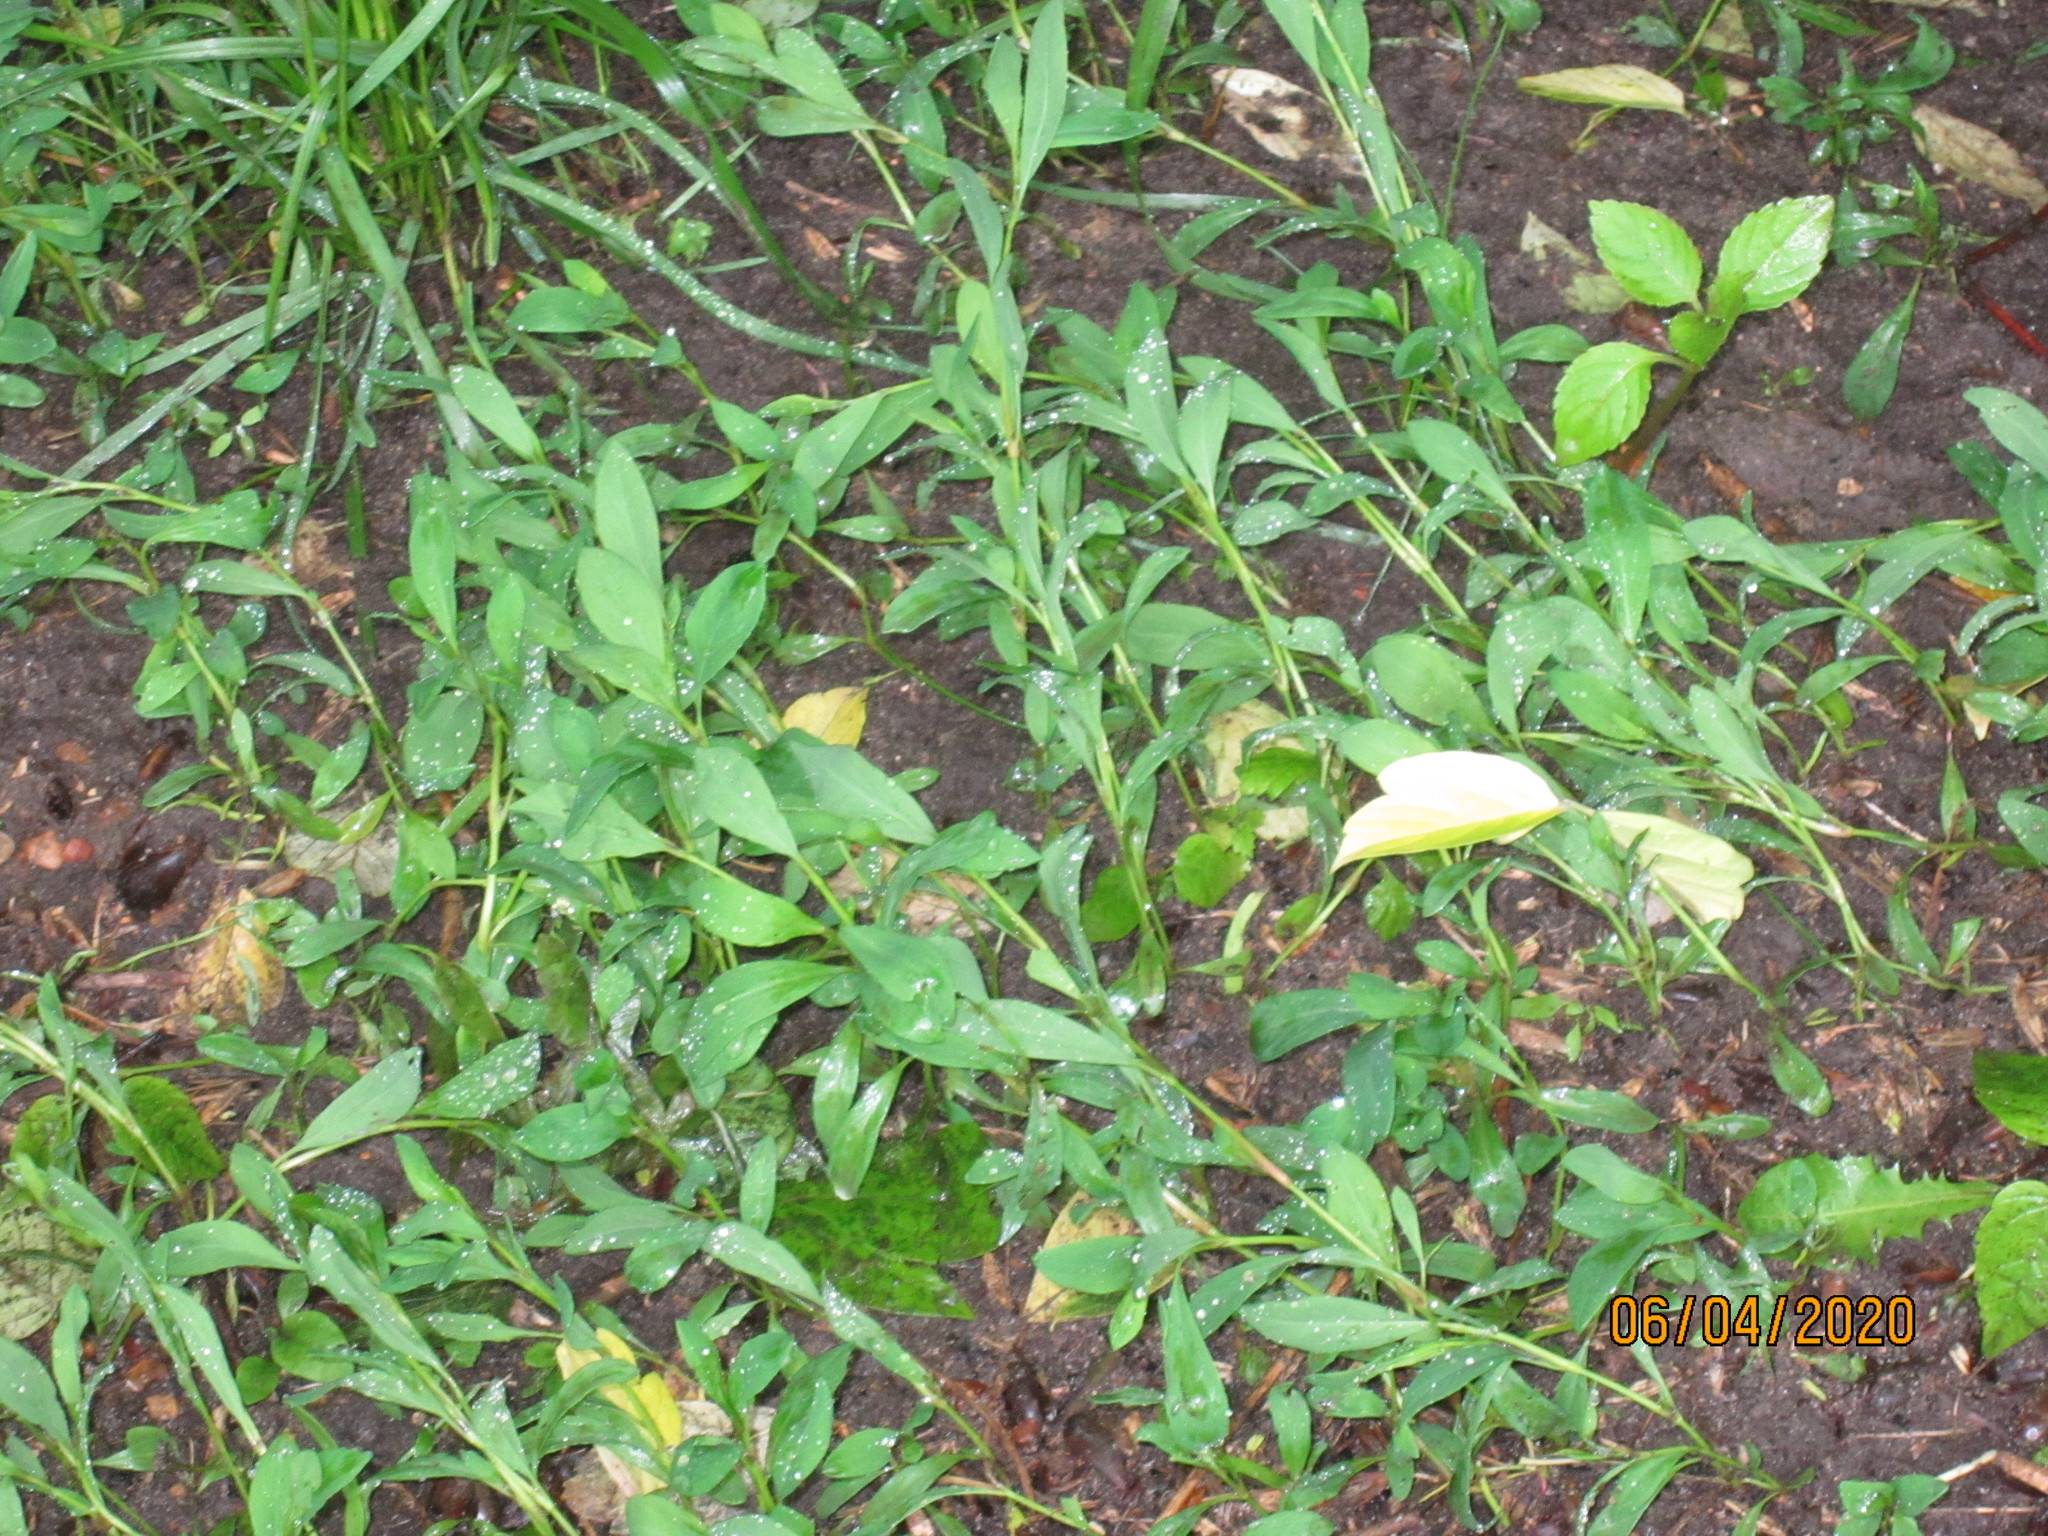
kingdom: Plantae
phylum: Tracheophyta
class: Magnoliopsida
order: Caryophyllales
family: Polygonaceae
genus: Polygonum
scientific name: Polygonum
